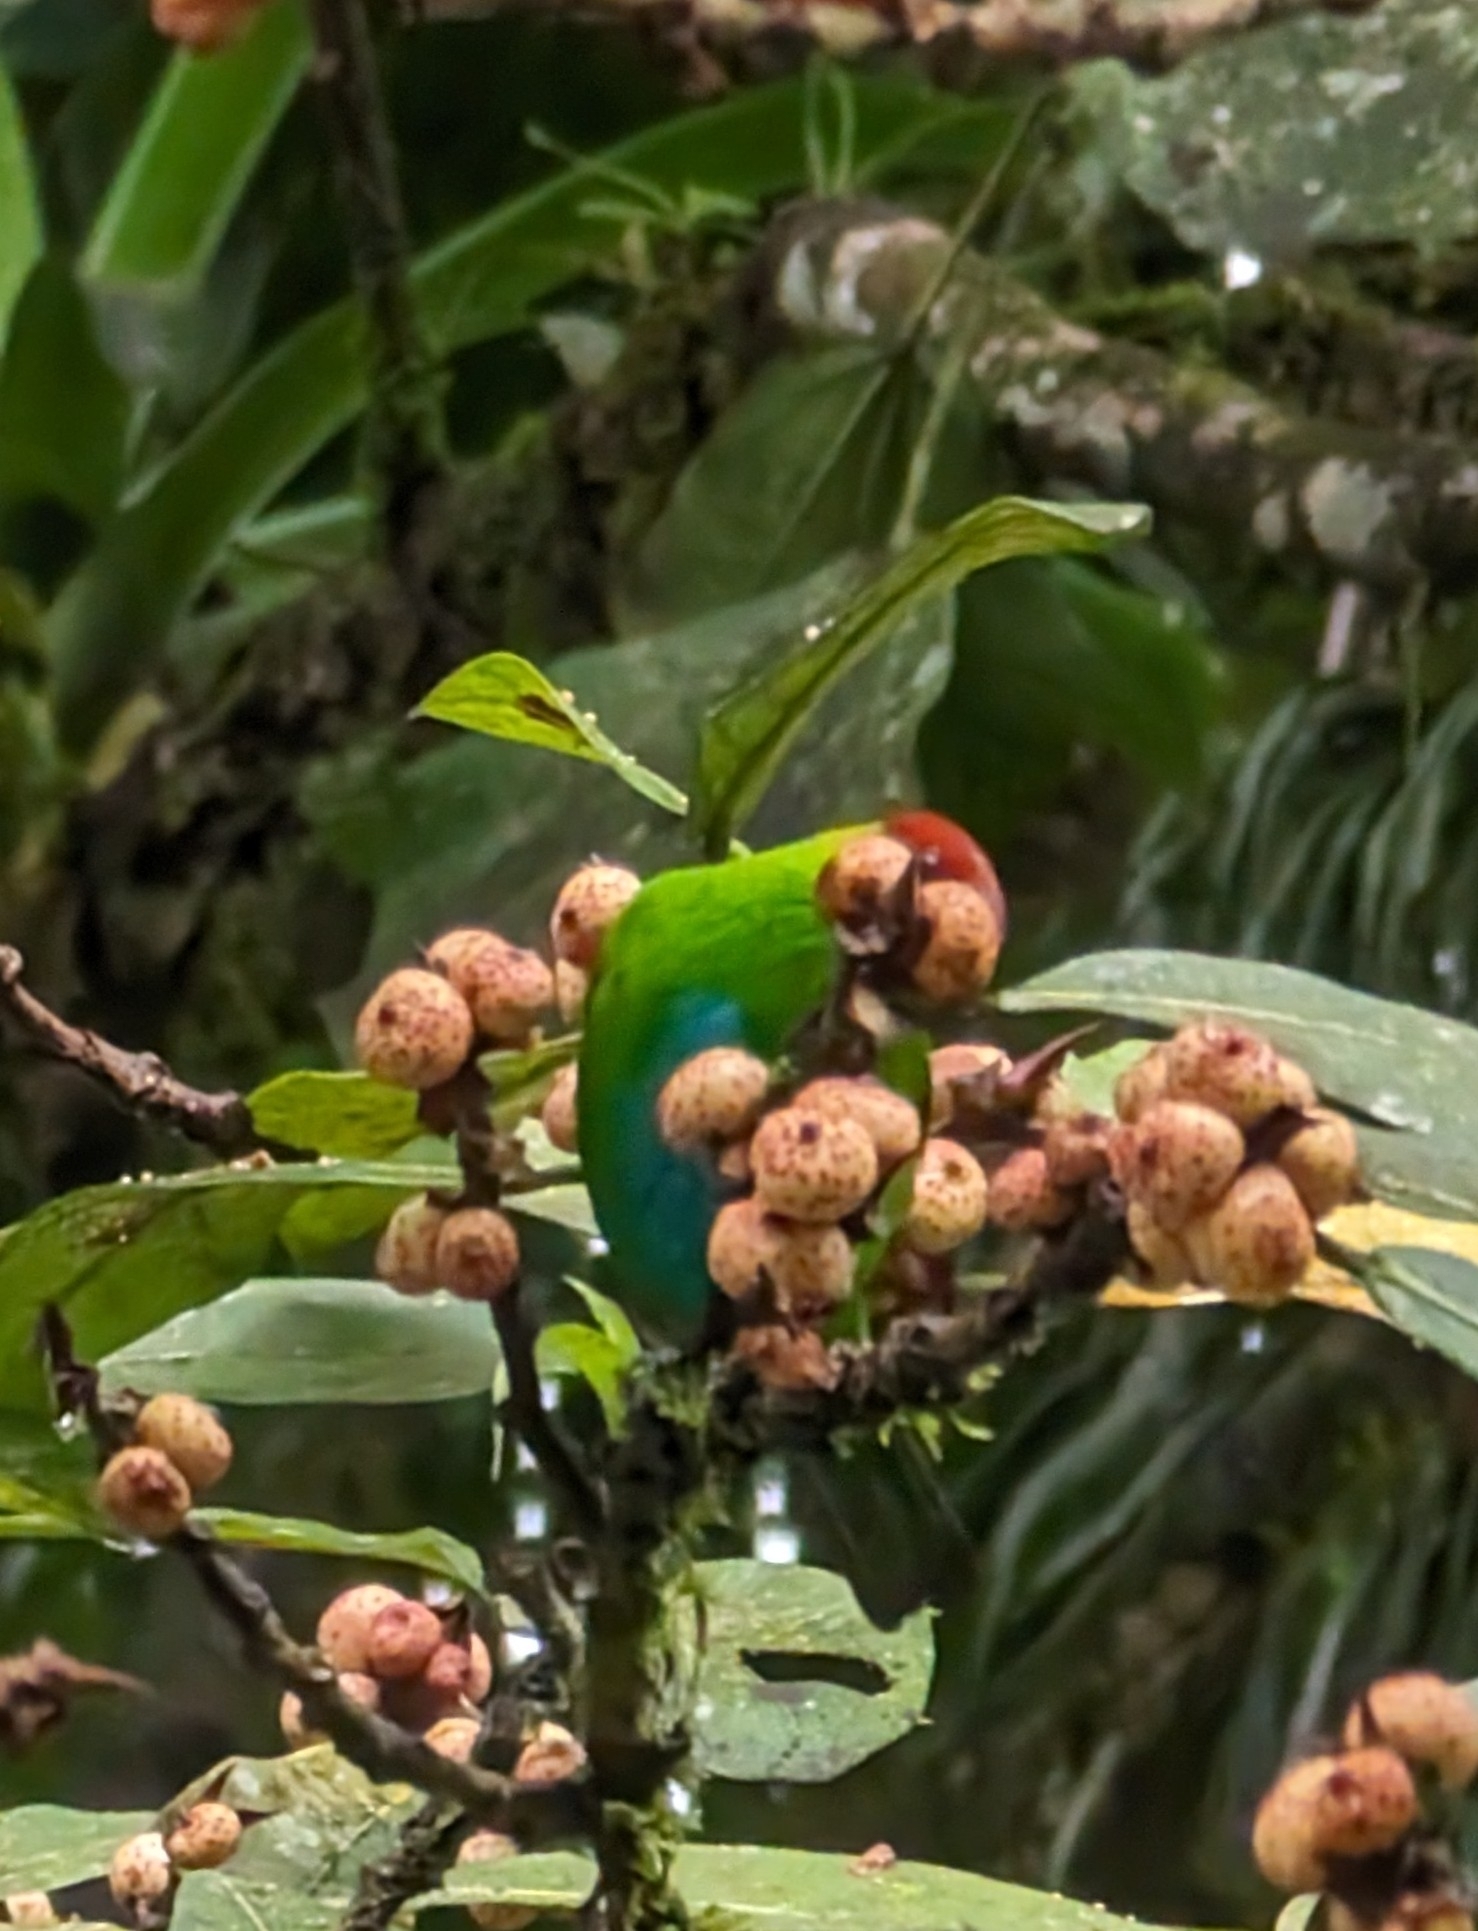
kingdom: Animalia
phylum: Chordata
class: Aves
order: Passeriformes
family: Thraupidae
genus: Tangara
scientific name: Tangara lavinia
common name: Rufous-winged tanager
